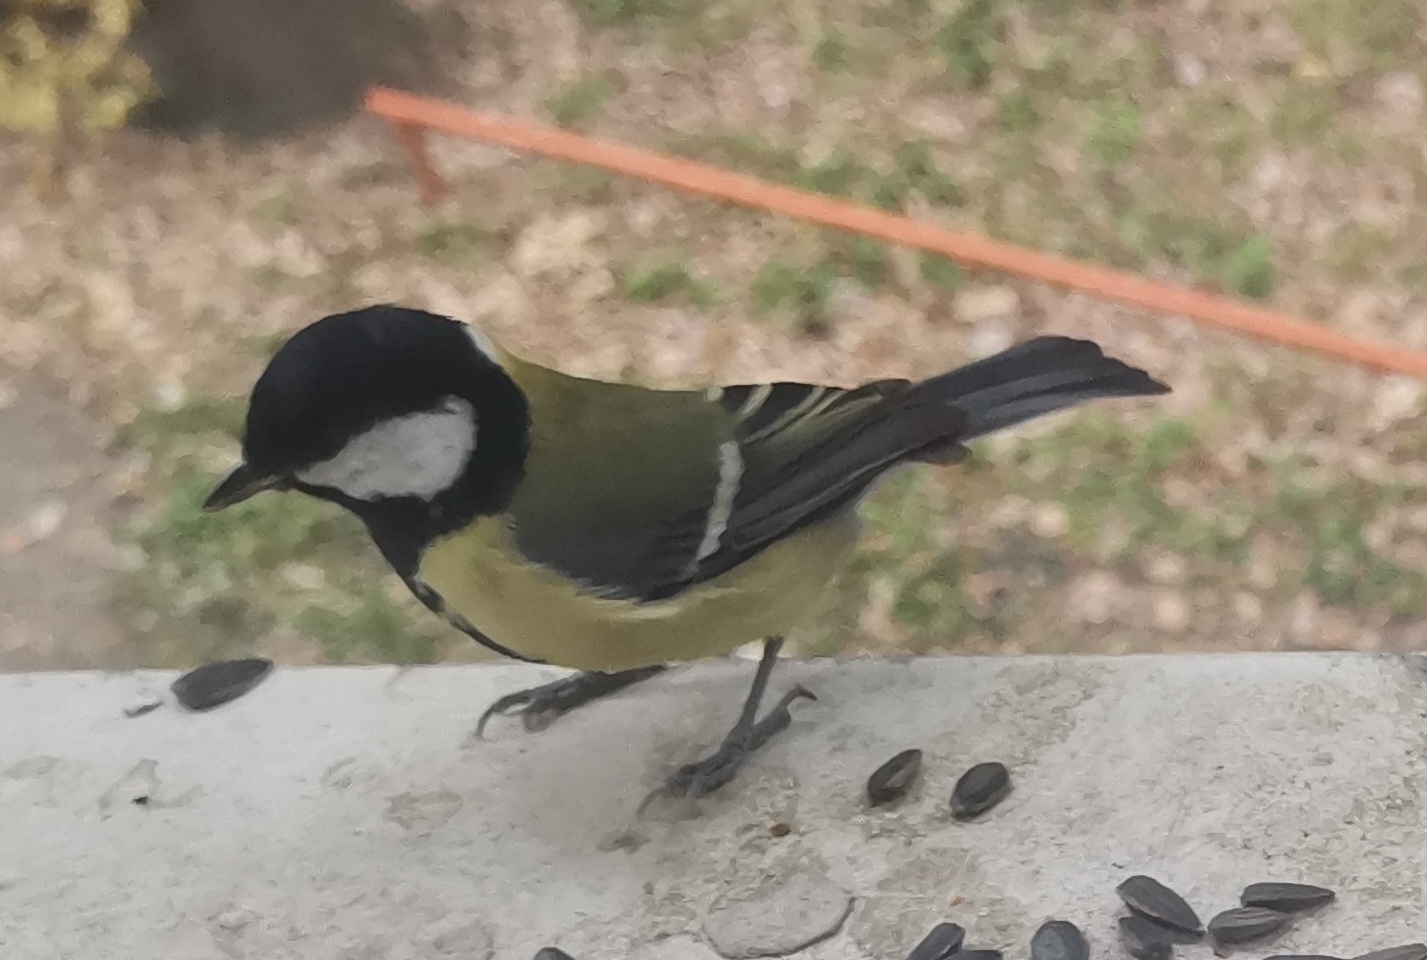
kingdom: Animalia
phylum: Chordata
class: Aves
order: Passeriformes
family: Paridae
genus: Parus
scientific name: Parus major
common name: Great tit
